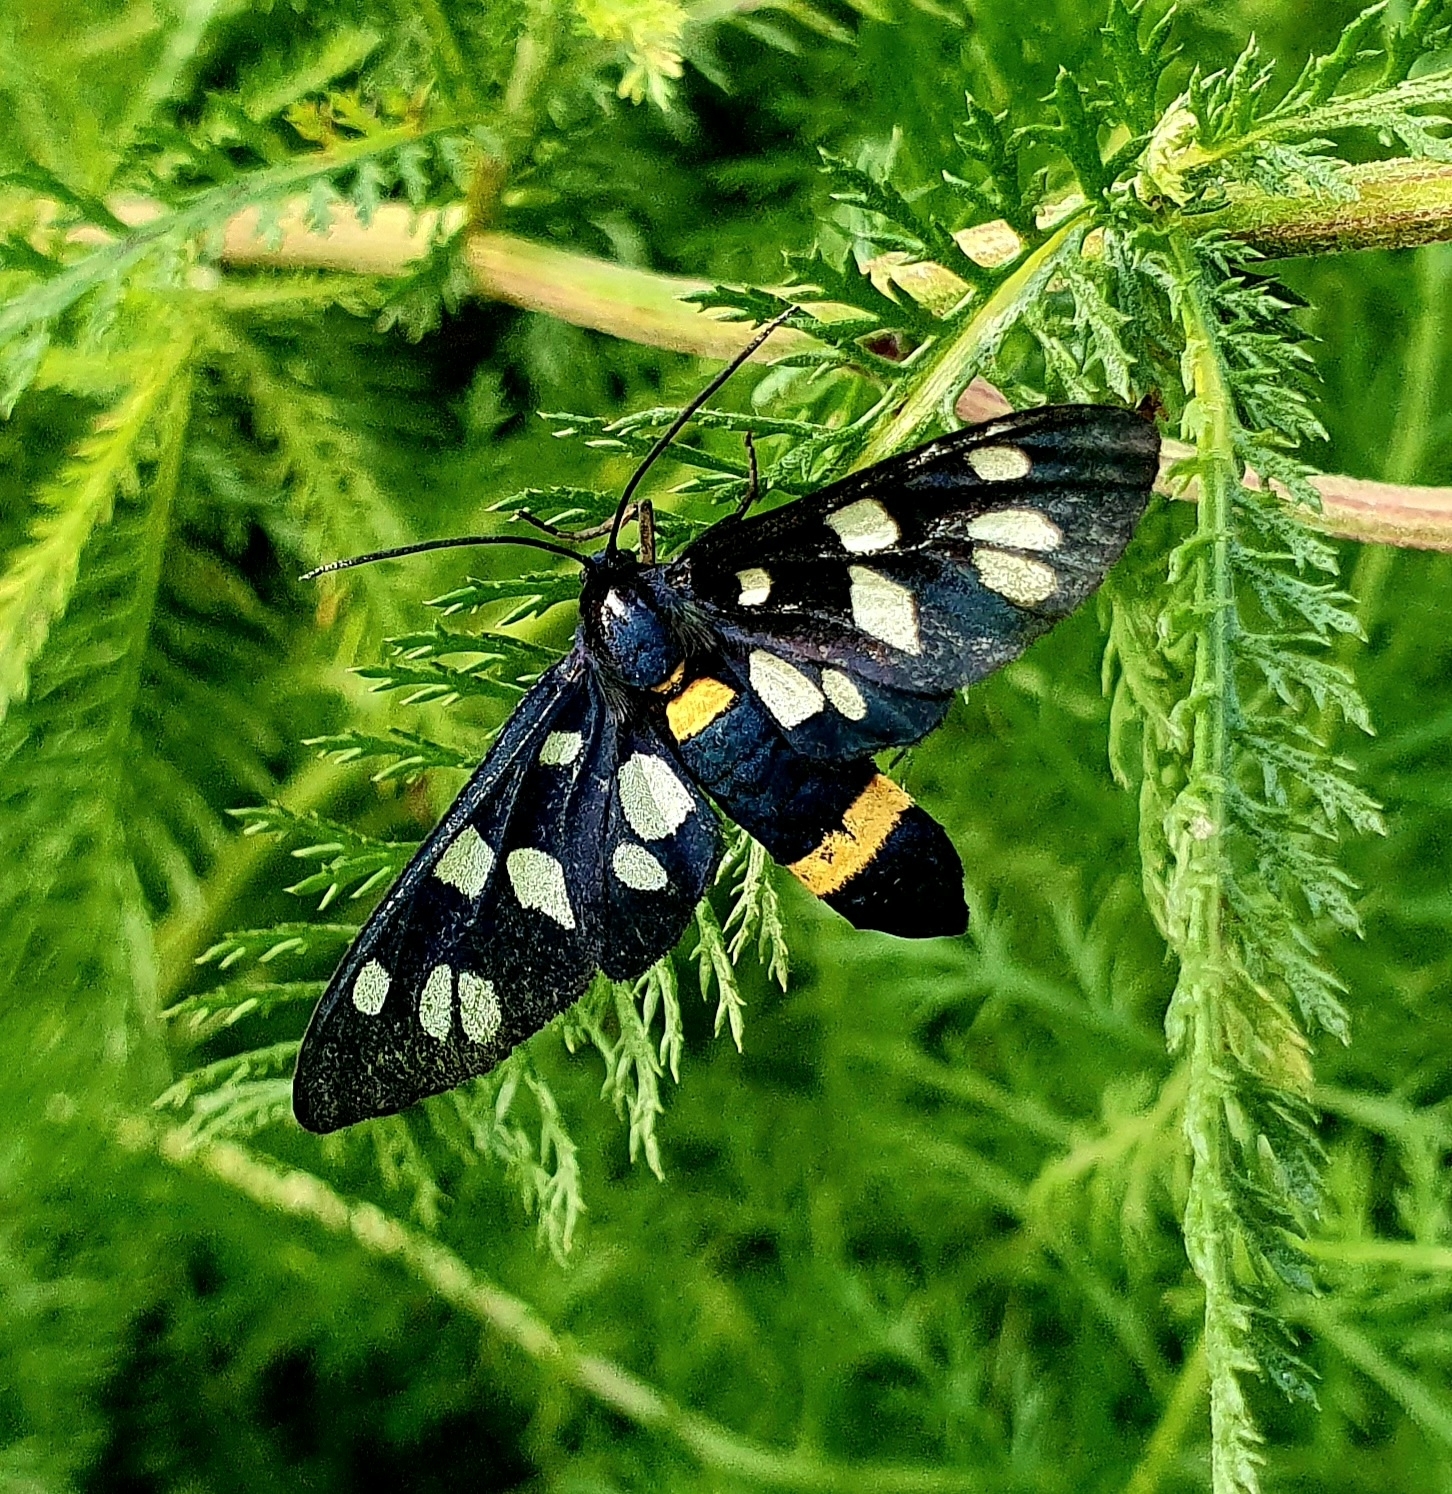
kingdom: Animalia
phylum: Arthropoda
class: Insecta
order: Lepidoptera
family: Erebidae
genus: Amata
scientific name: Amata nigricornis
